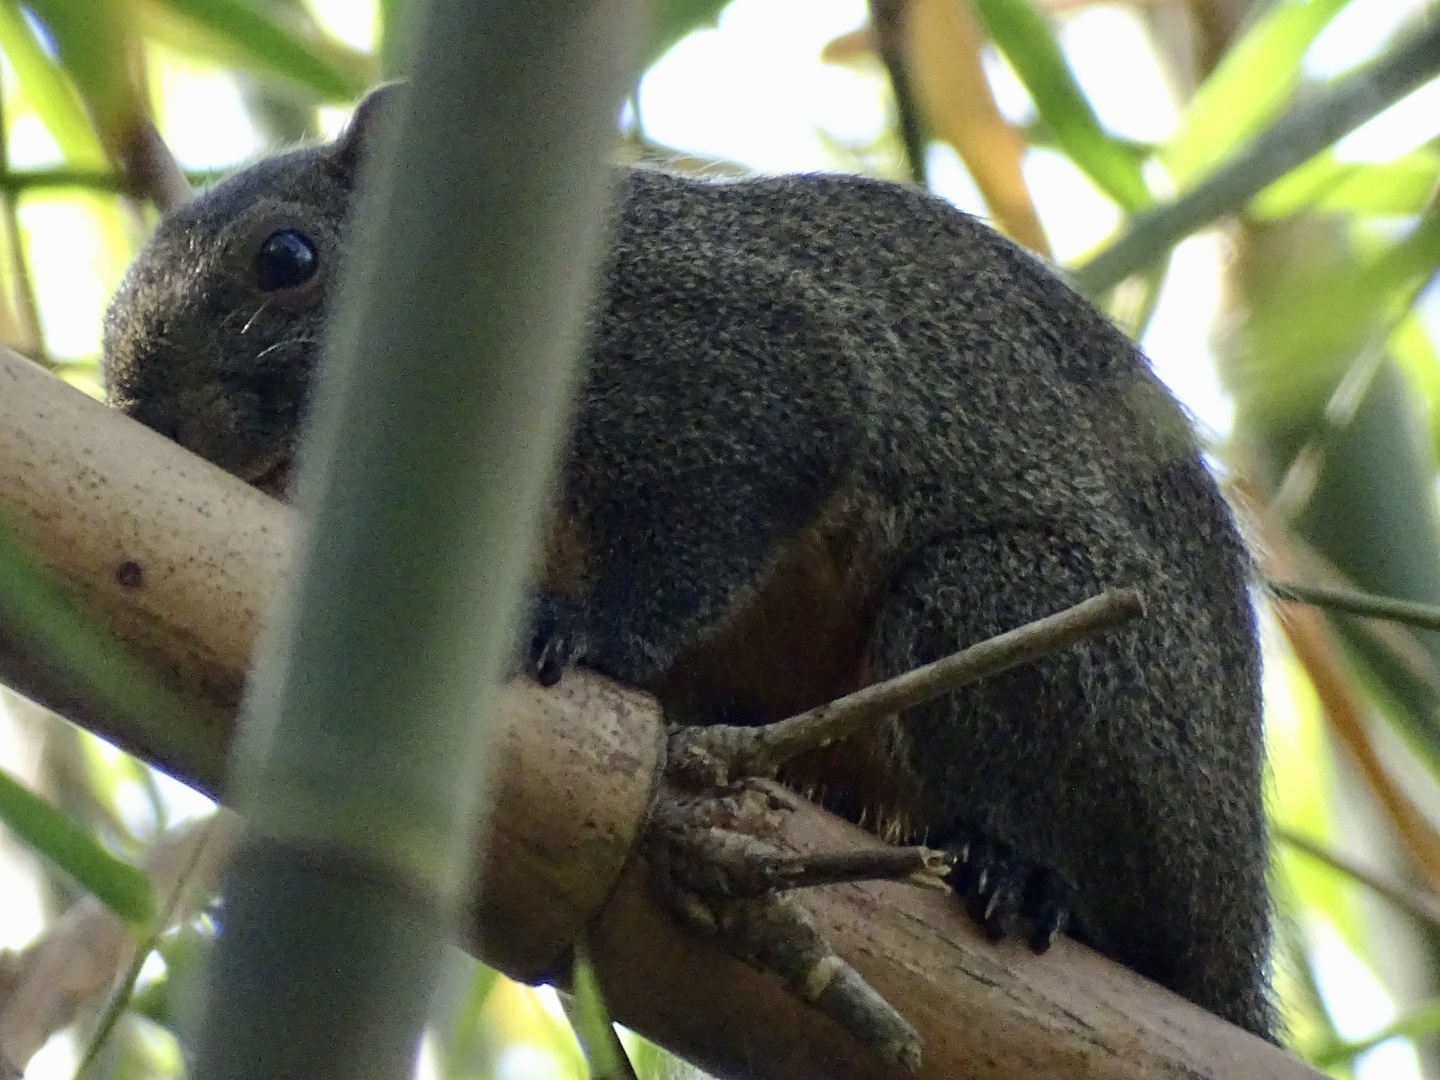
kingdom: Animalia
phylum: Chordata
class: Mammalia
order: Rodentia
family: Sciuridae
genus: Callosciurus
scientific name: Callosciurus erythraeus
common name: Pallas's squirrel
